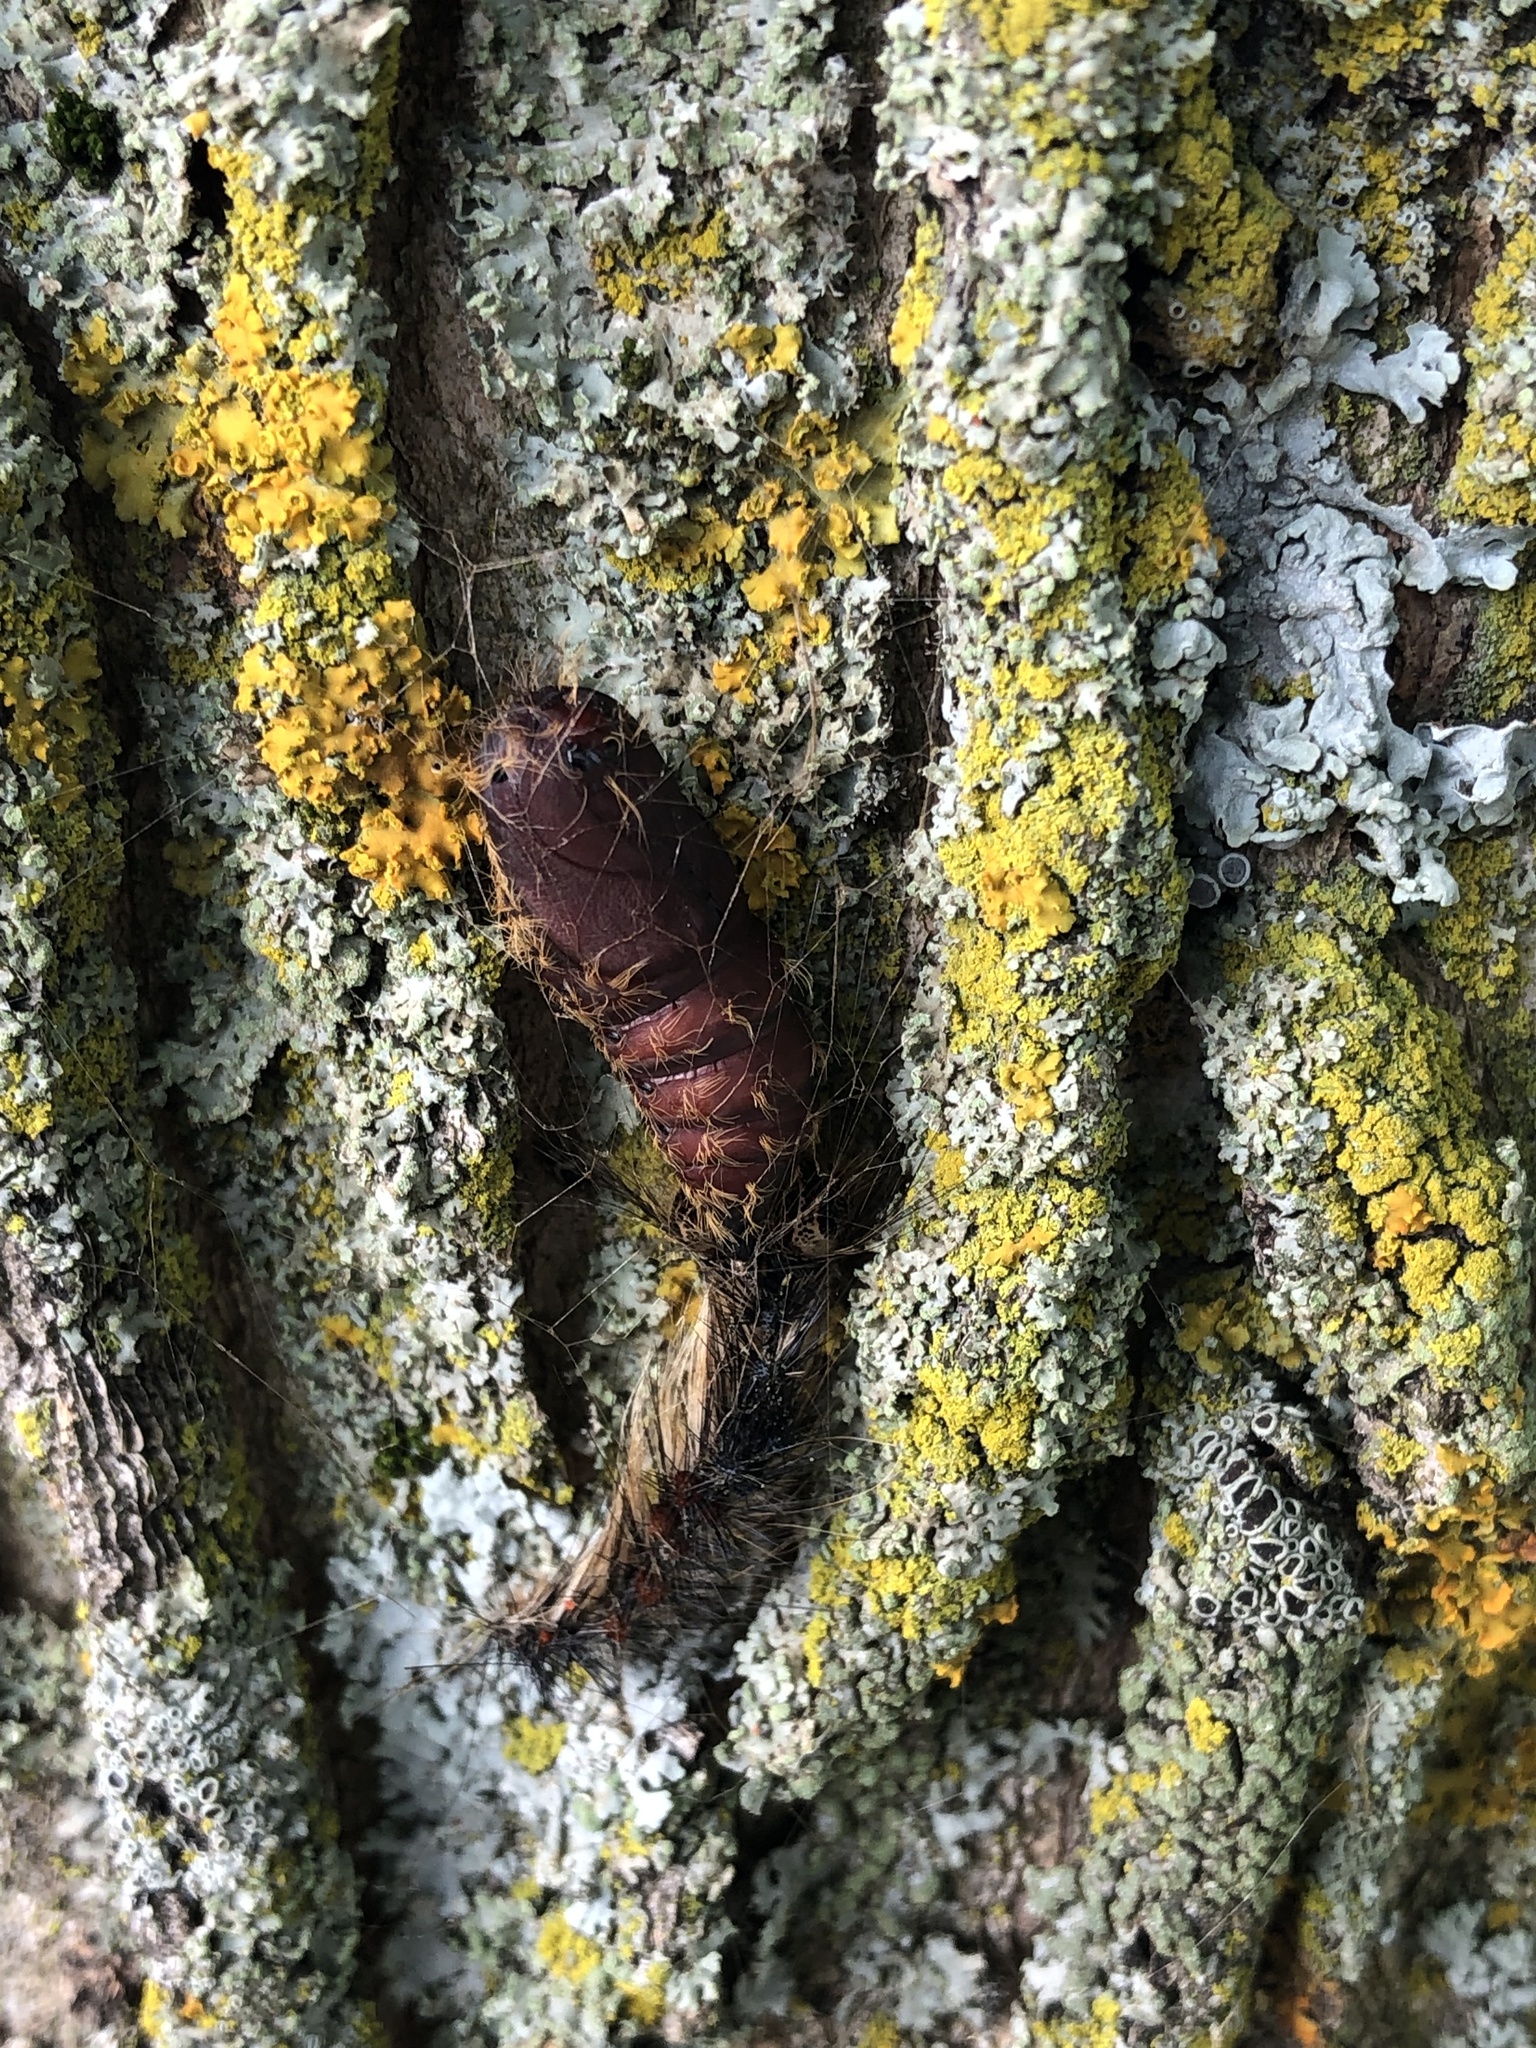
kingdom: Animalia
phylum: Arthropoda
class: Insecta
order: Lepidoptera
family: Erebidae
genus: Lymantria
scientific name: Lymantria dispar
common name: Gypsy moth
